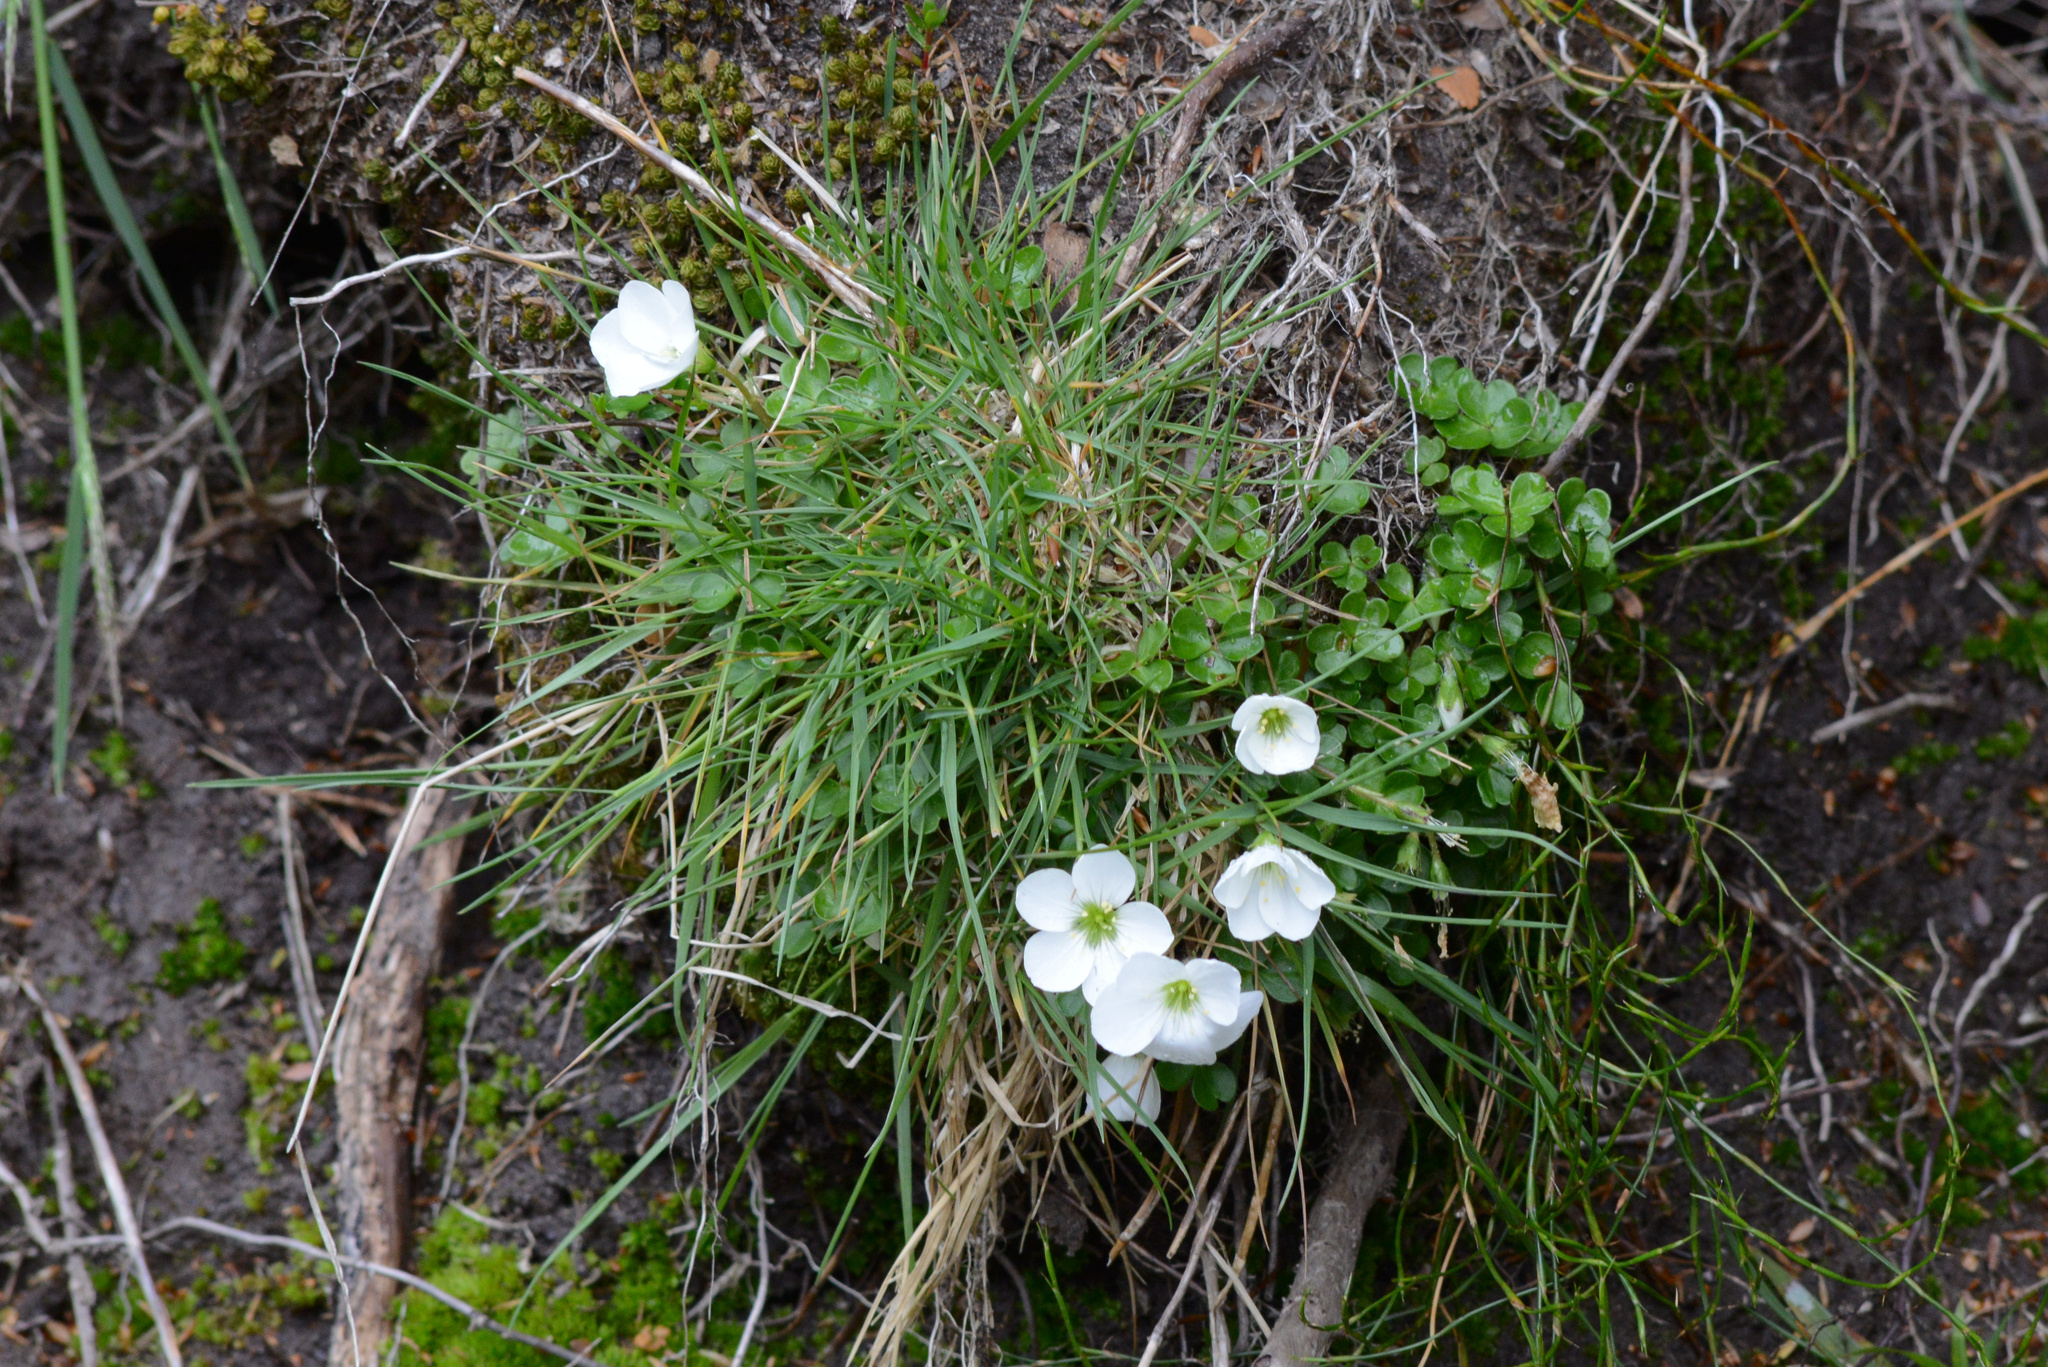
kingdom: Plantae
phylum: Tracheophyta
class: Magnoliopsida
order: Oxalidales
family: Oxalidaceae
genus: Oxalis
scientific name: Oxalis magellanica
